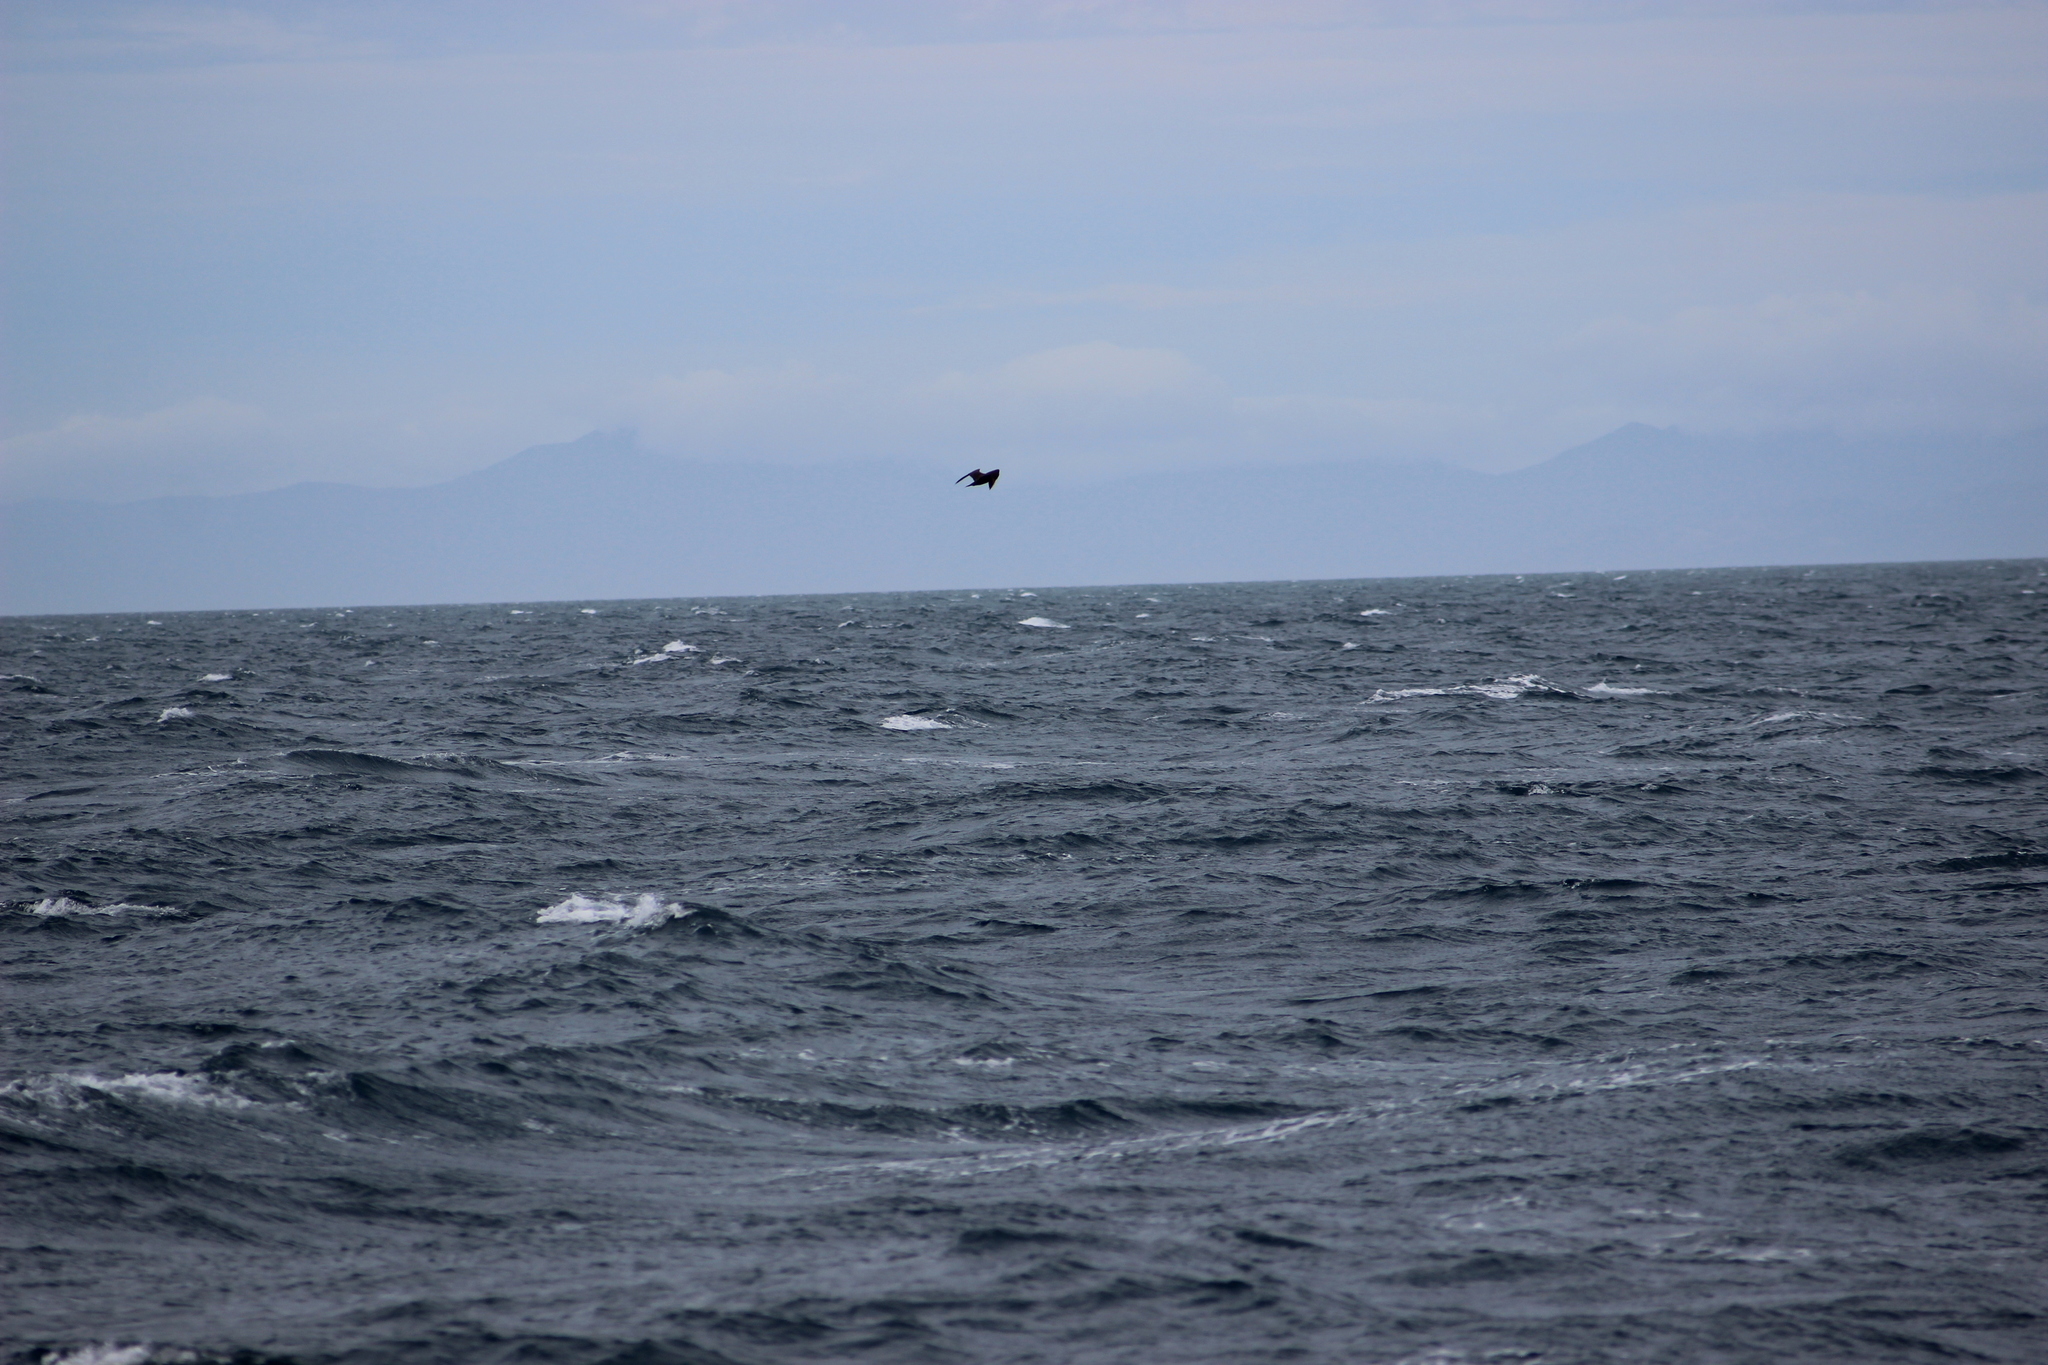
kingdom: Animalia
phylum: Chordata
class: Aves
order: Charadriiformes
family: Stercorariidae
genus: Stercorarius
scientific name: Stercorarius parasiticus
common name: Parasitic jaeger
